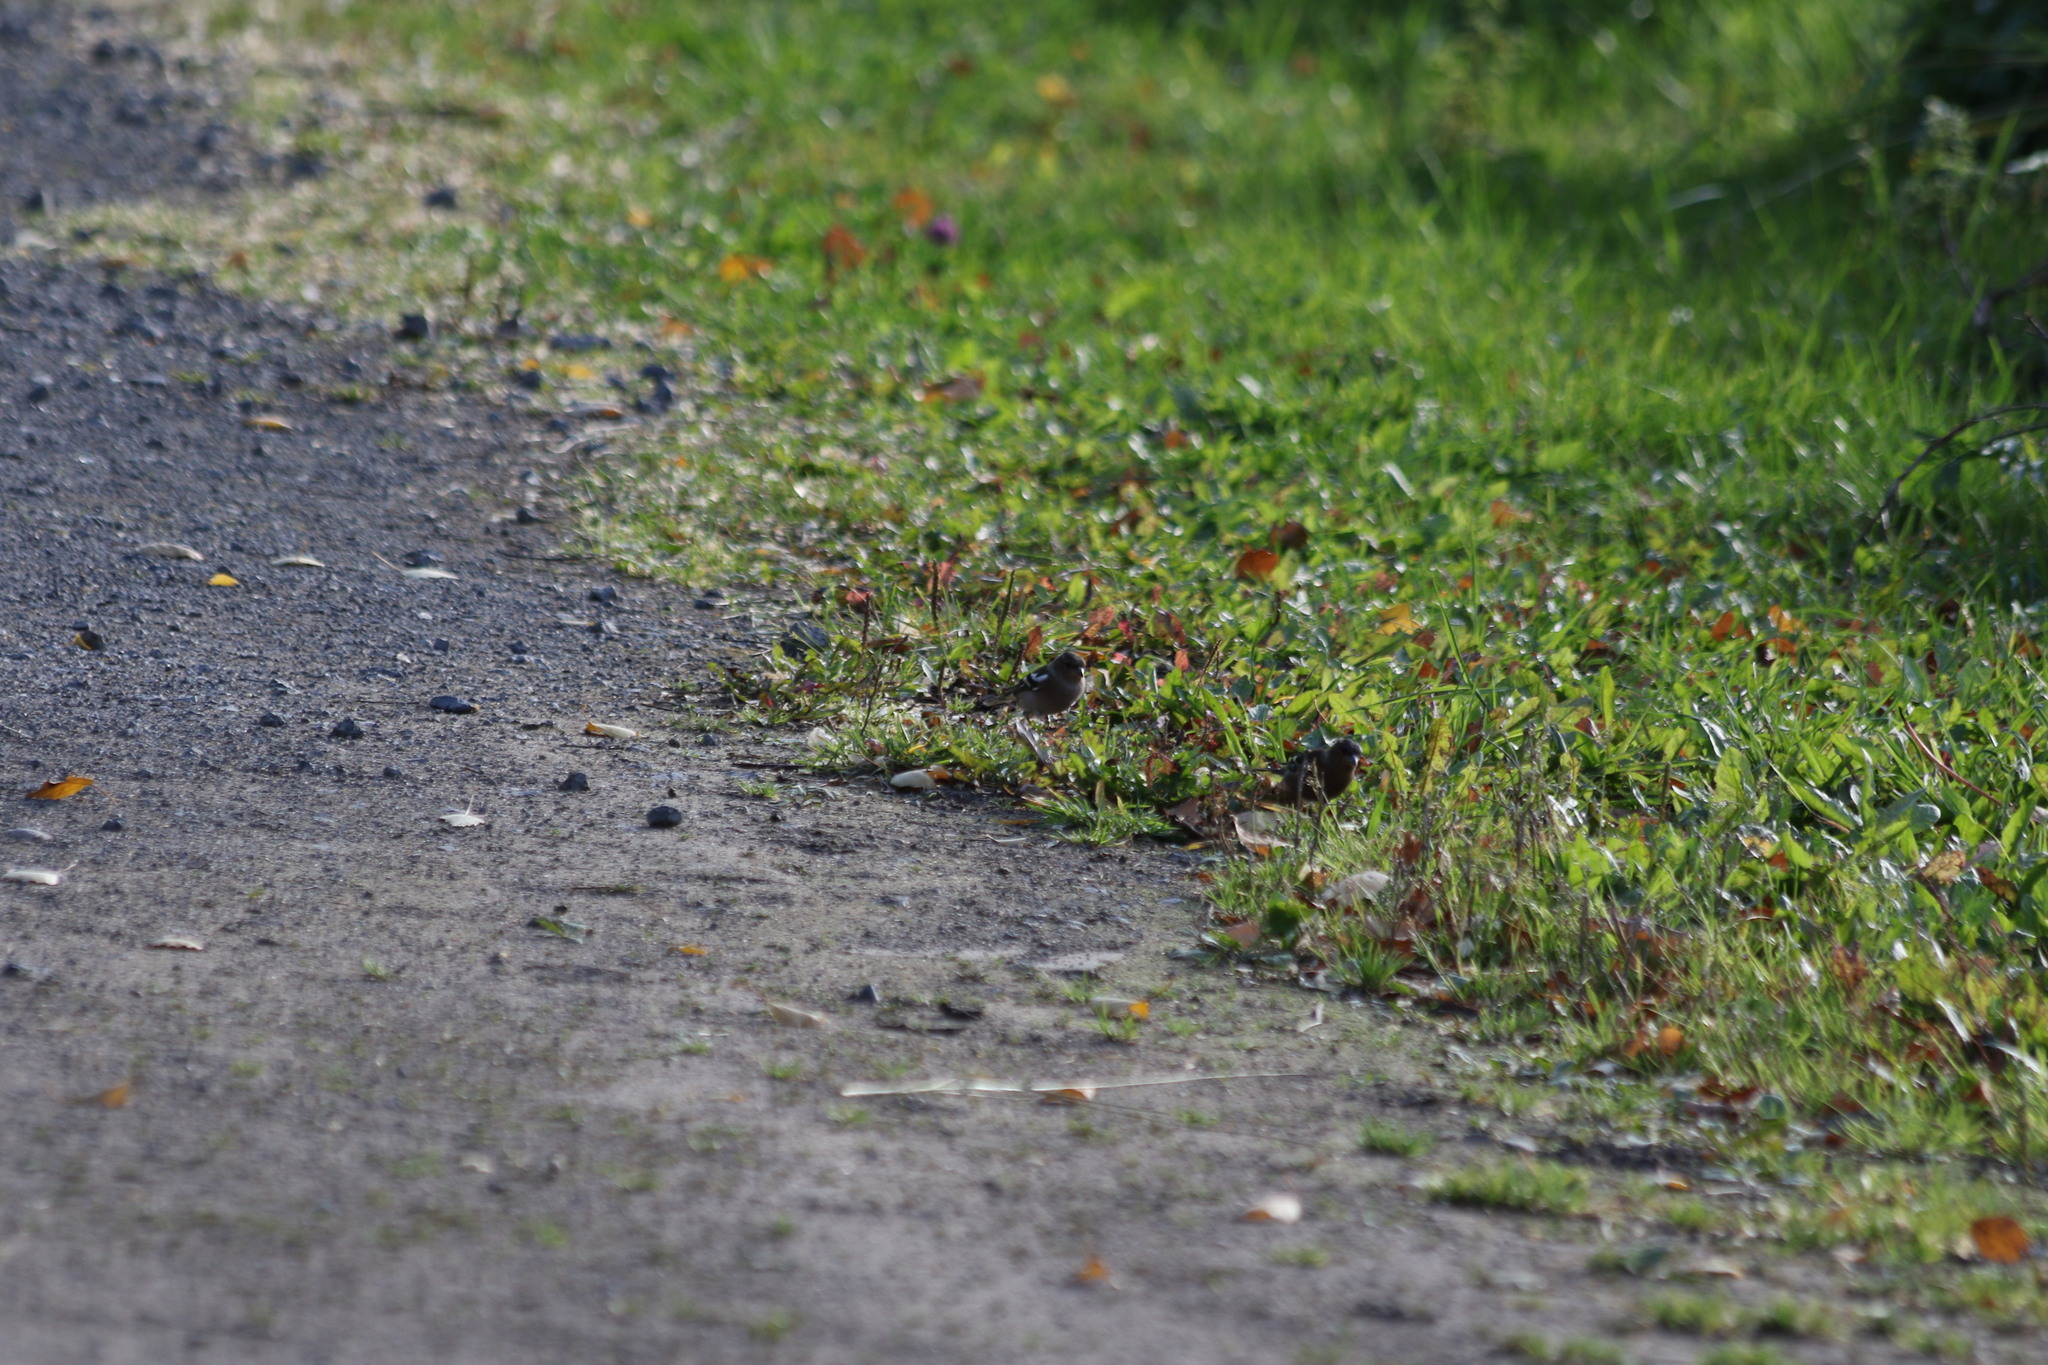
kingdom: Animalia
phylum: Chordata
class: Aves
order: Passeriformes
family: Fringillidae
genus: Fringilla
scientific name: Fringilla coelebs
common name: Common chaffinch
